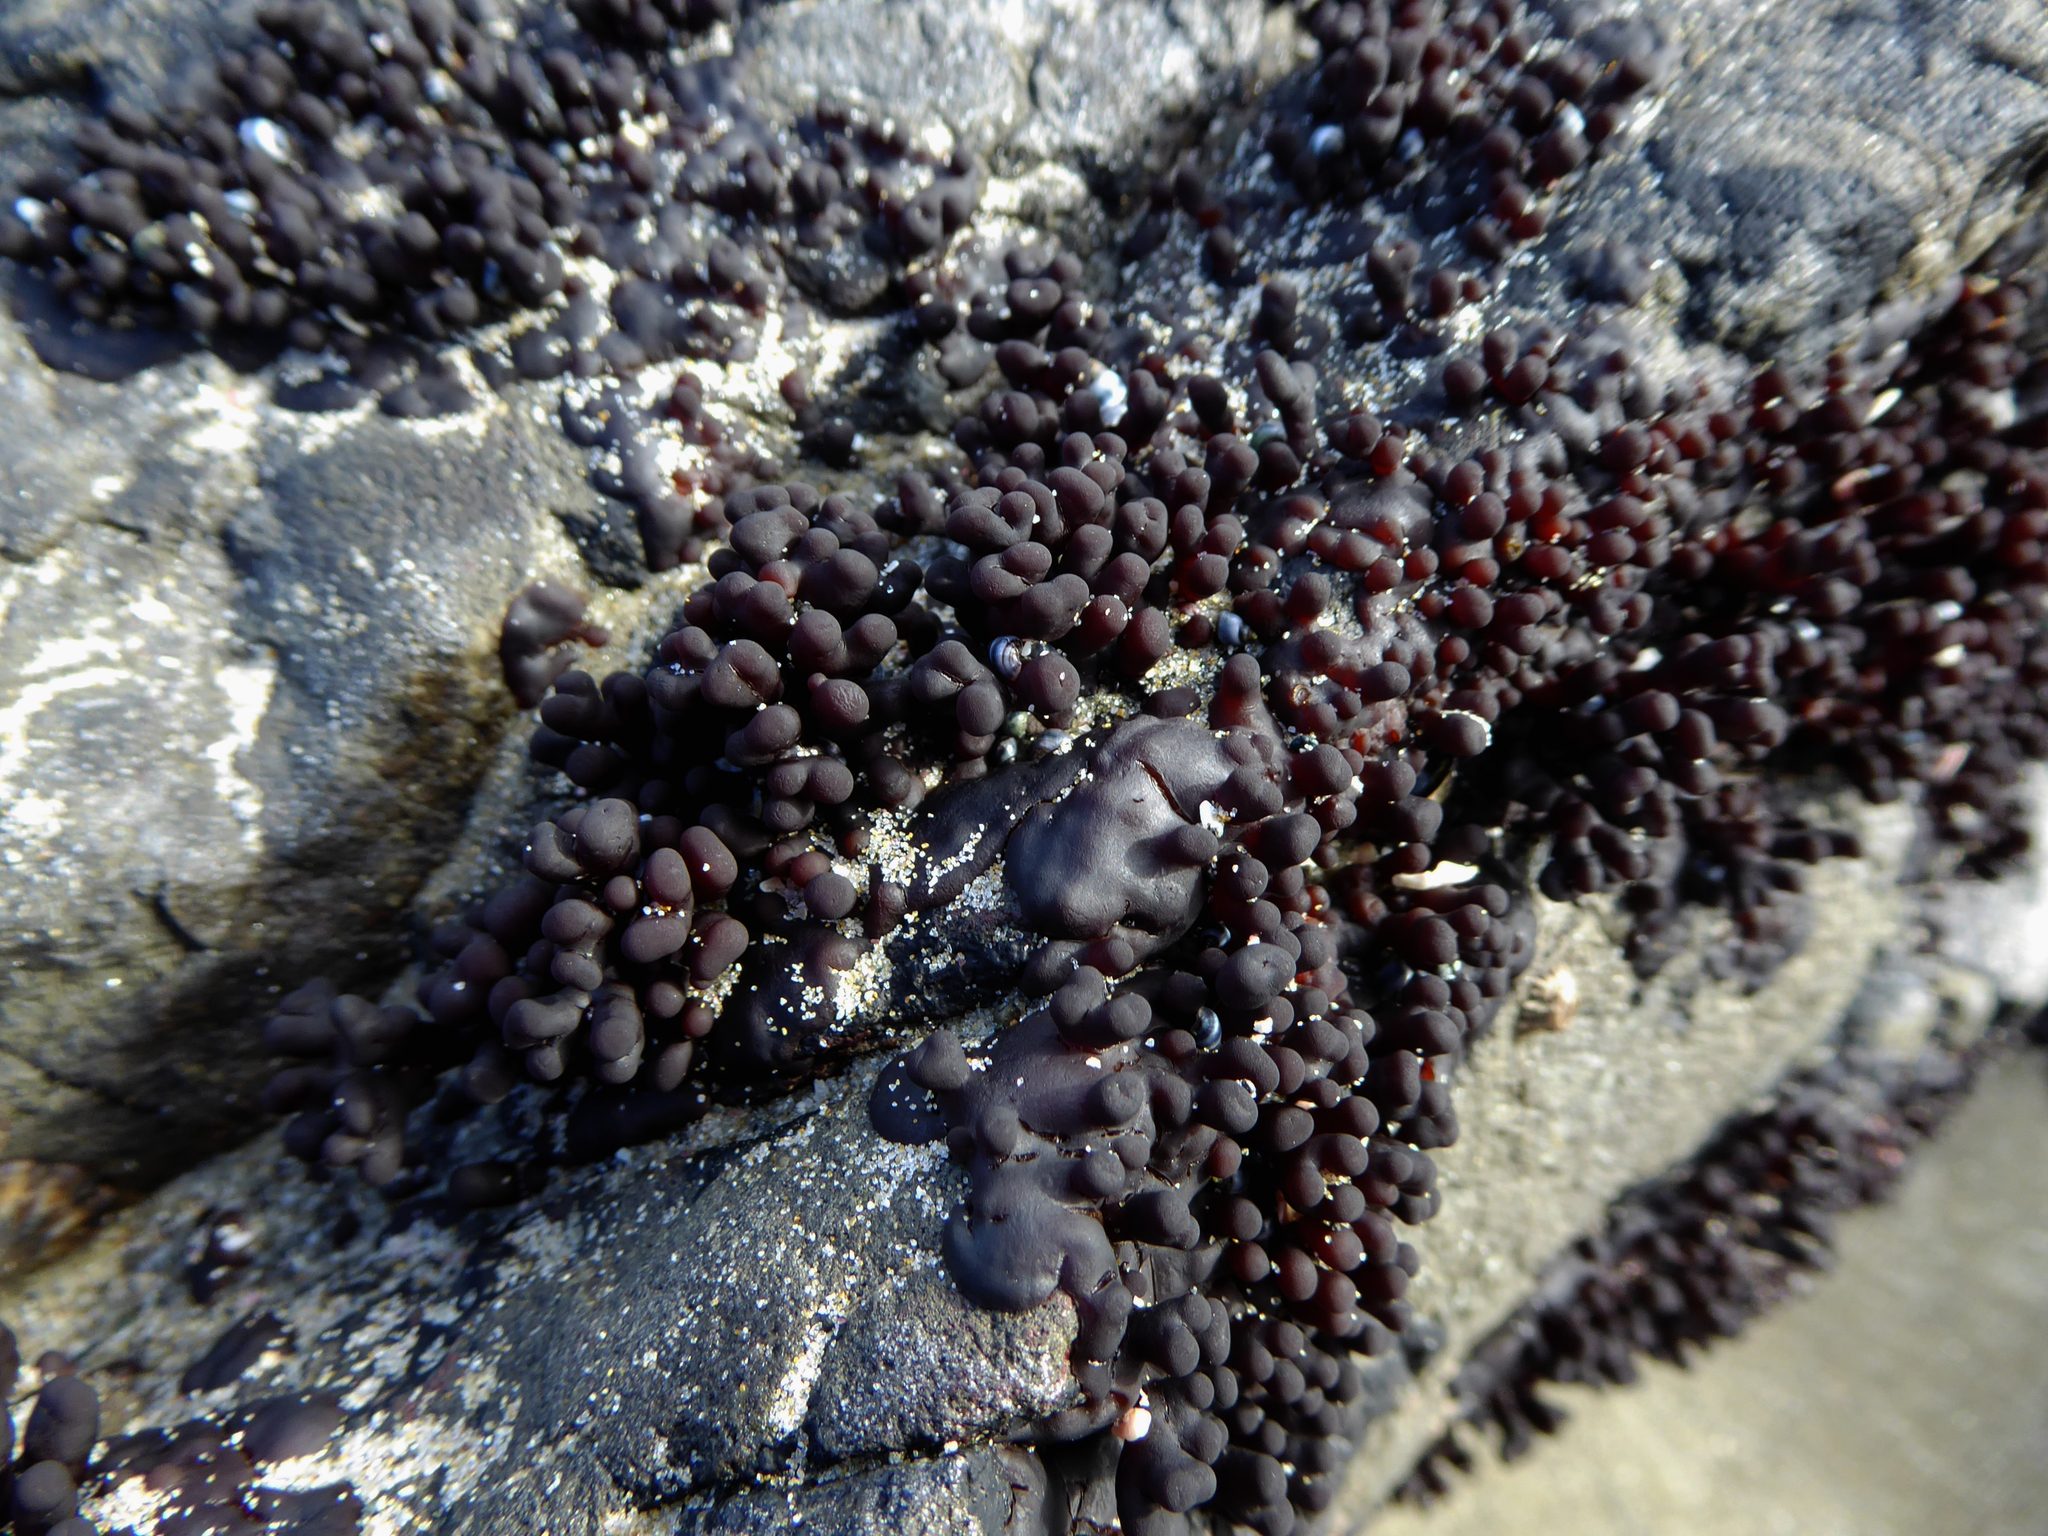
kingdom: Plantae
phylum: Rhodophyta
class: Florideophyceae
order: Hildenbrandiales
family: Hildenbrandiaceae
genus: Apophlaea
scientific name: Apophlaea sinclairii
